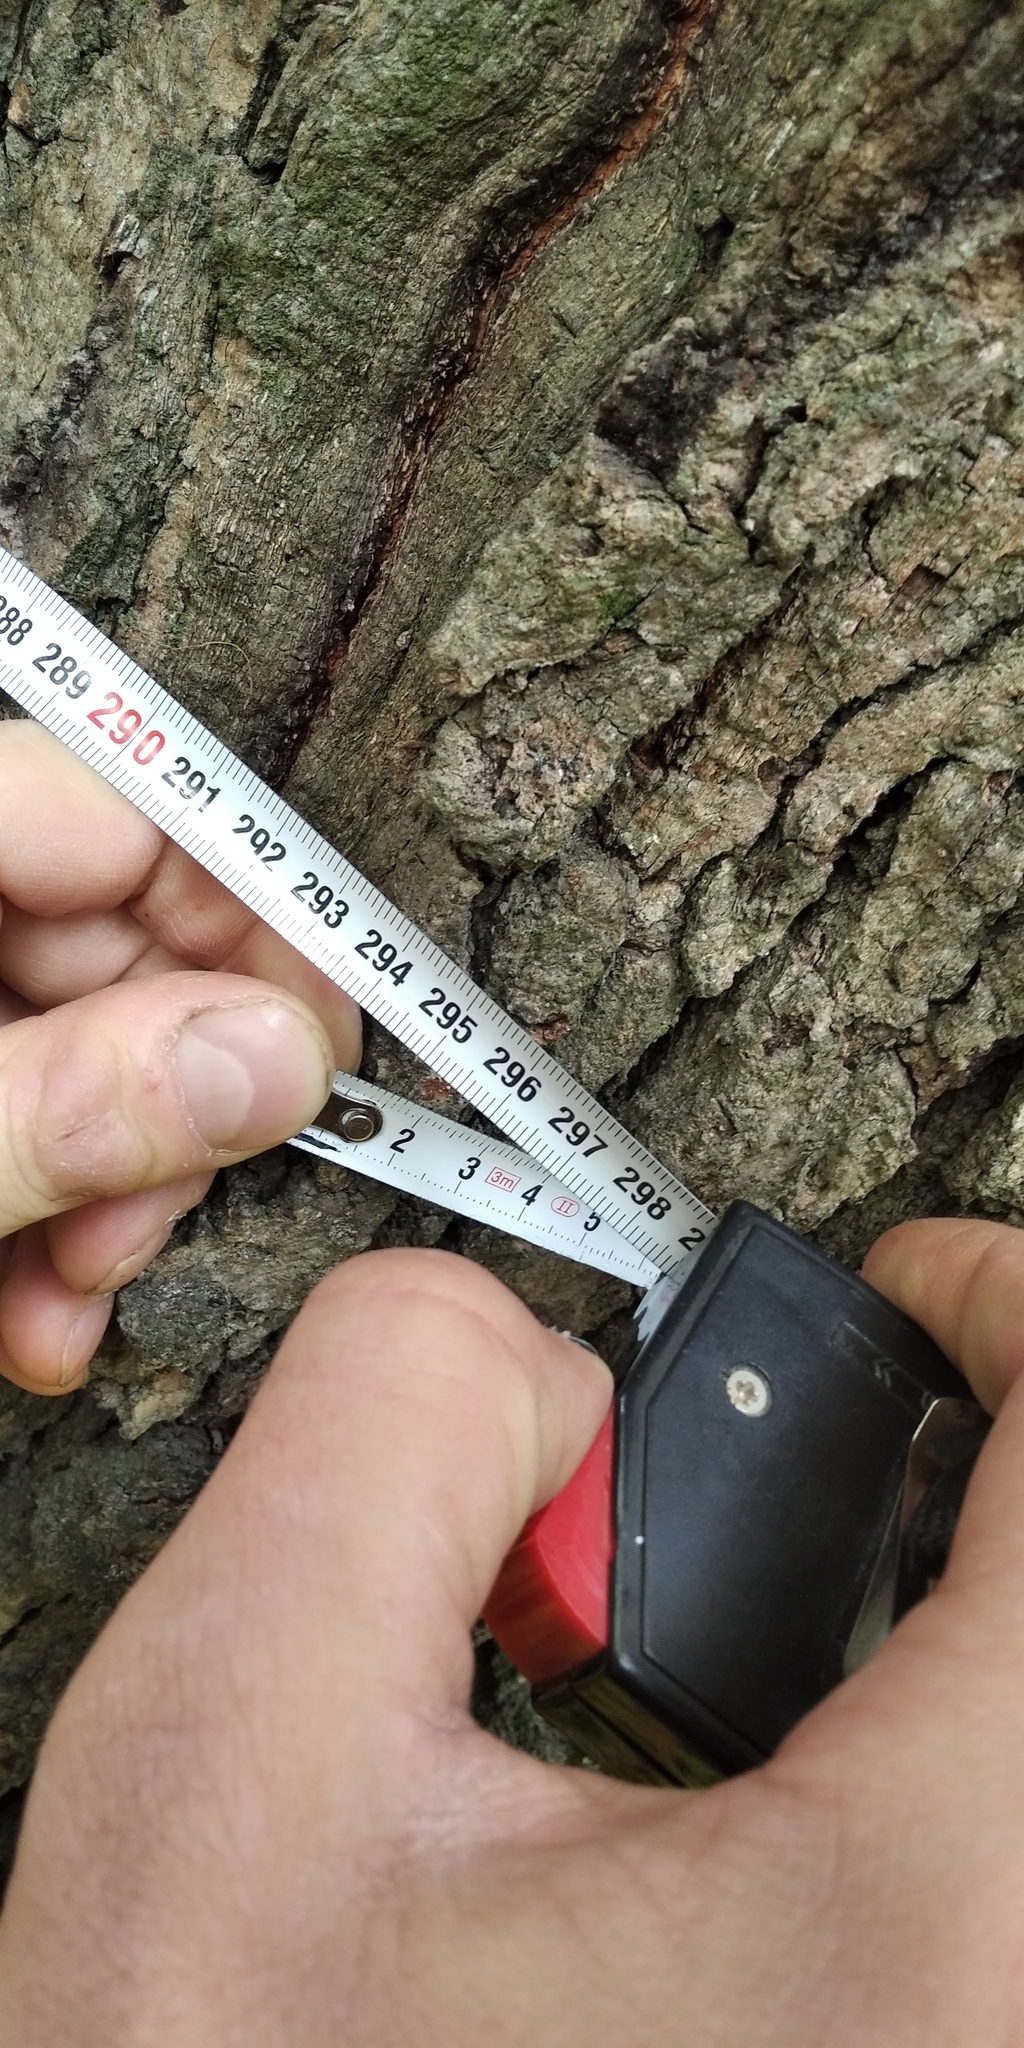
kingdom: Plantae
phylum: Tracheophyta
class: Magnoliopsida
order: Fagales
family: Fagaceae
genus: Quercus
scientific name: Quercus robur
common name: Pedunculate oak
